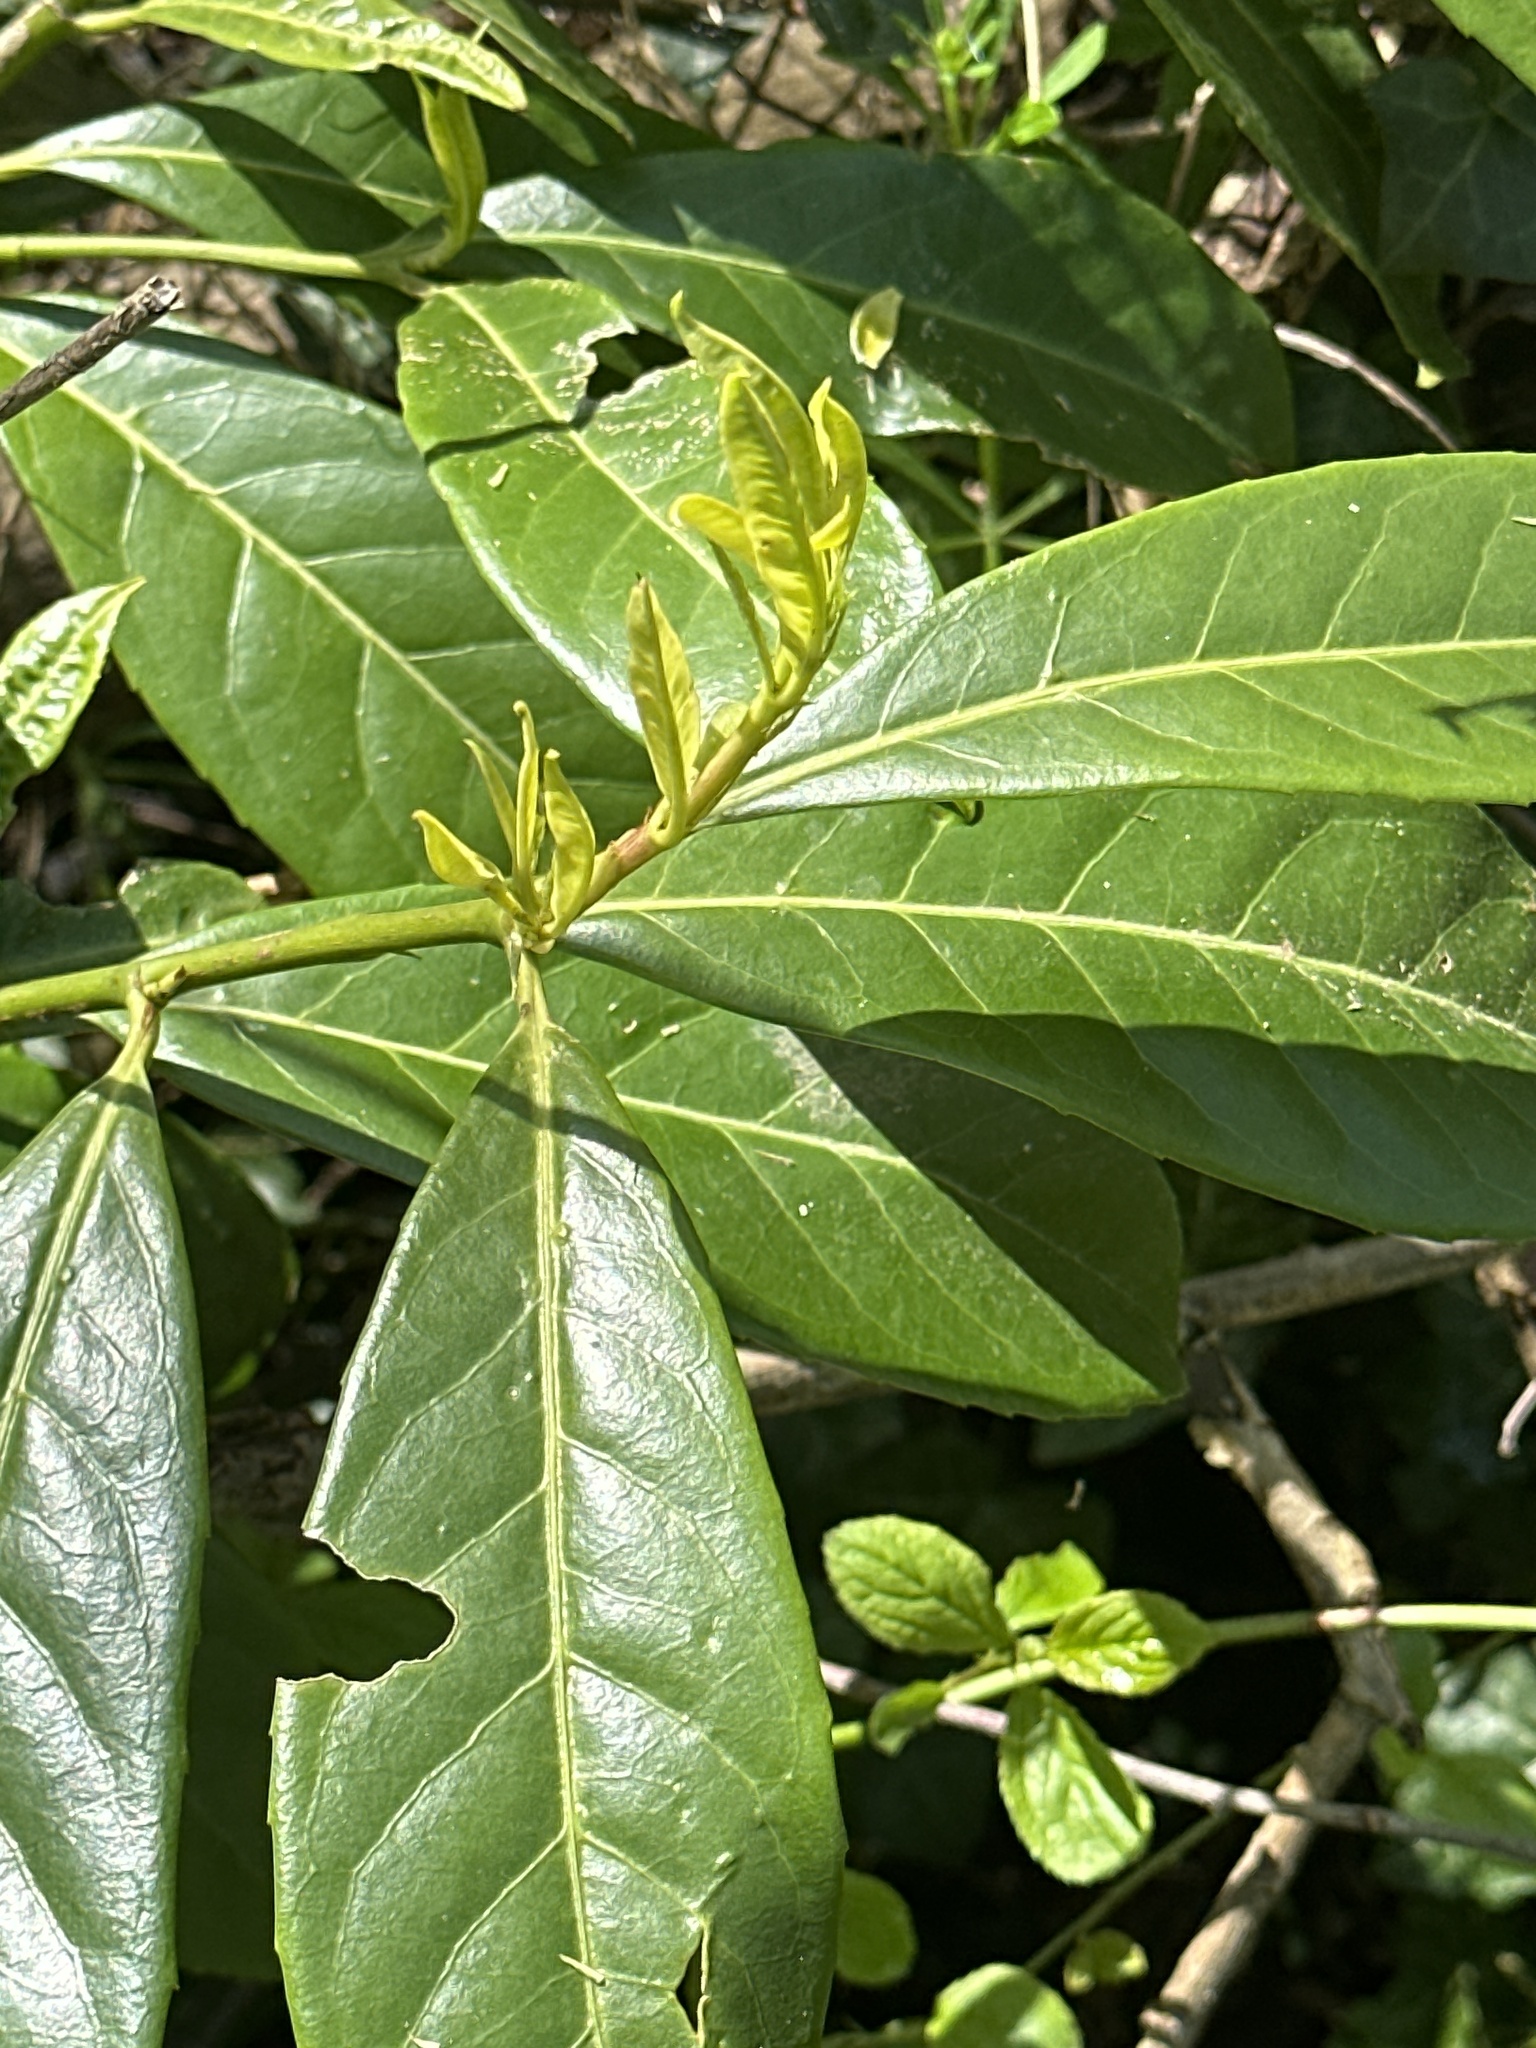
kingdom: Plantae
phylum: Tracheophyta
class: Magnoliopsida
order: Rosales
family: Rosaceae
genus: Prunus
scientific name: Prunus laurocerasus
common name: Cherry laurel
